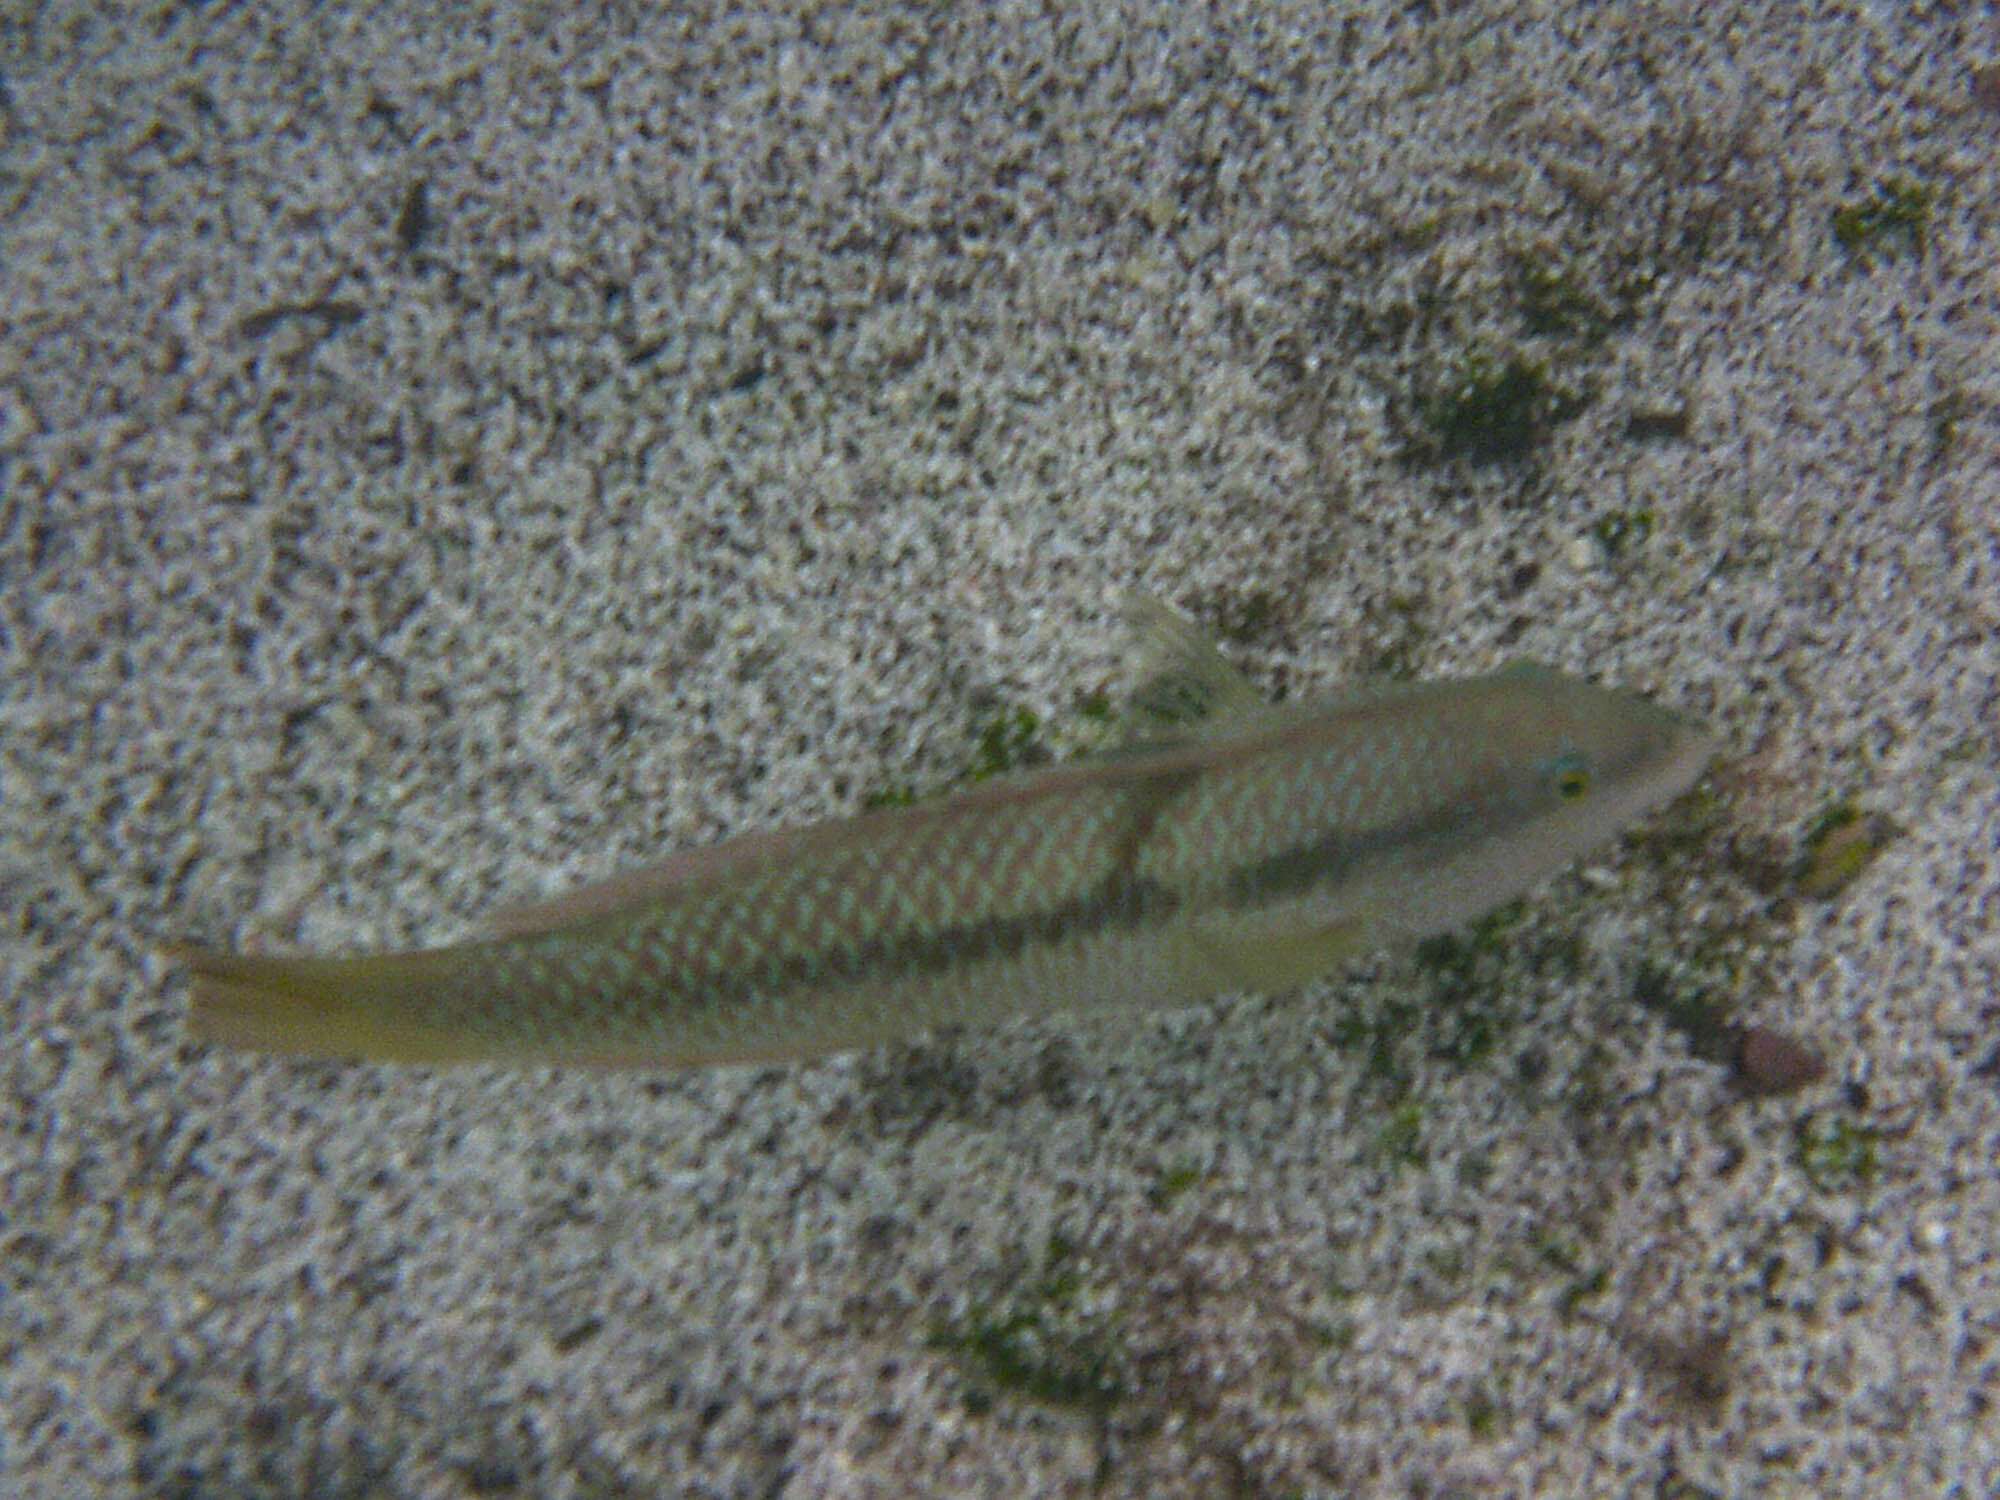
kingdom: Animalia
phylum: Chordata
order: Perciformes
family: Labridae
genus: Halichoeres
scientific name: Halichoeres nicholsi
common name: Spinster wrasse
